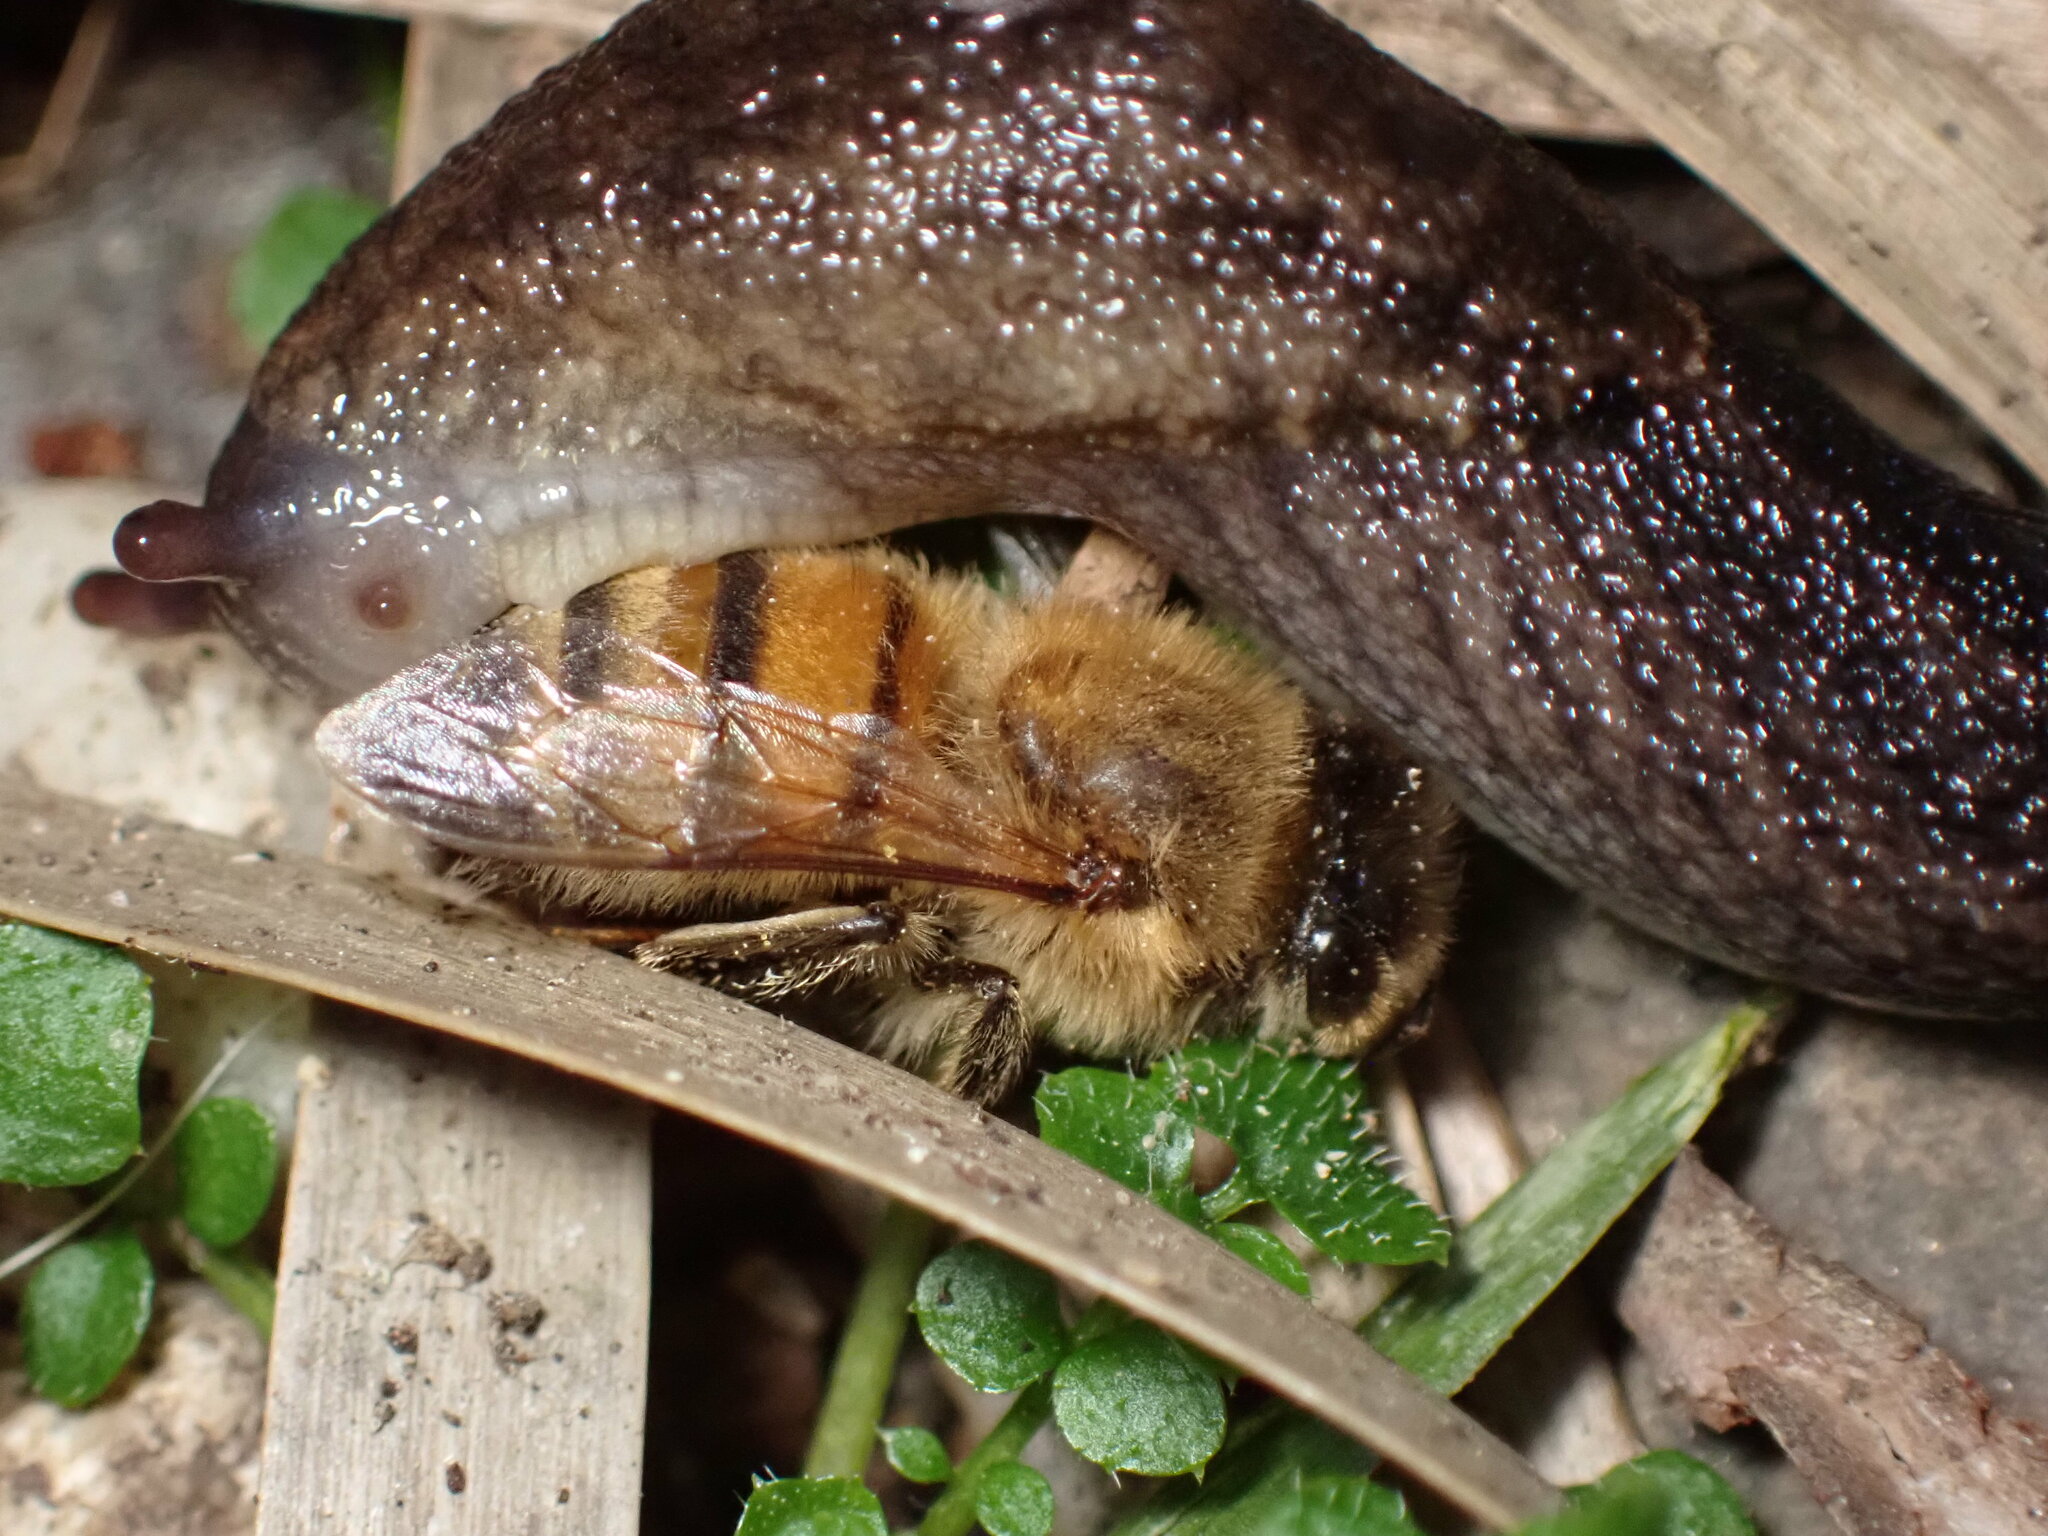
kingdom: Animalia
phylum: Arthropoda
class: Insecta
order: Hymenoptera
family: Apidae
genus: Apis
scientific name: Apis mellifera
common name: Honey bee
